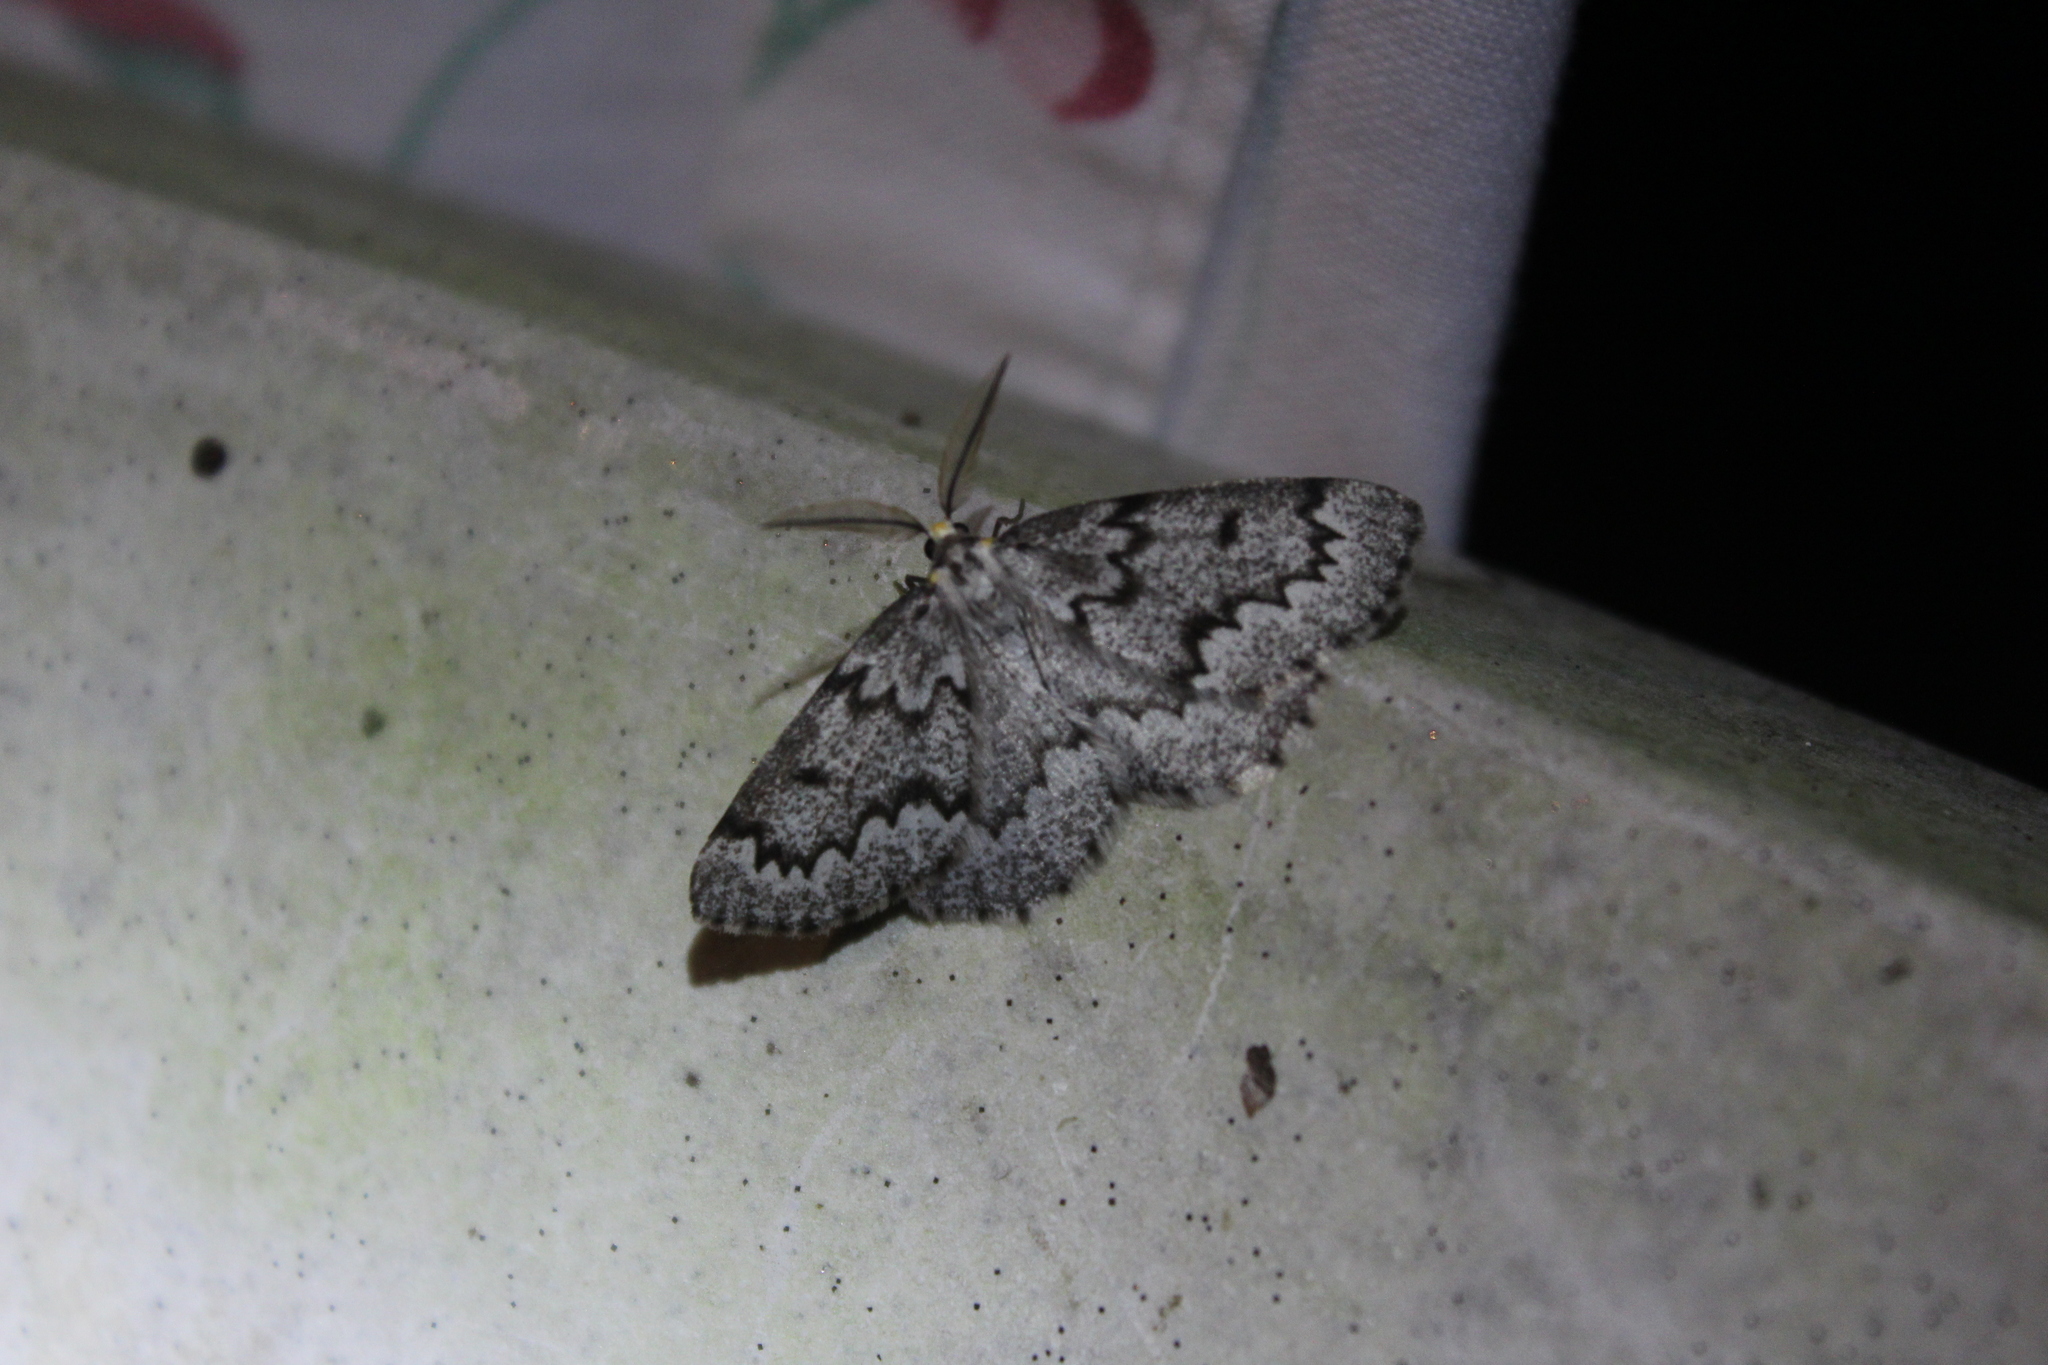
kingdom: Animalia
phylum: Arthropoda
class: Insecta
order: Lepidoptera
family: Geometridae
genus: Nepytia
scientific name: Nepytia canosaria
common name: False hemlock looper
